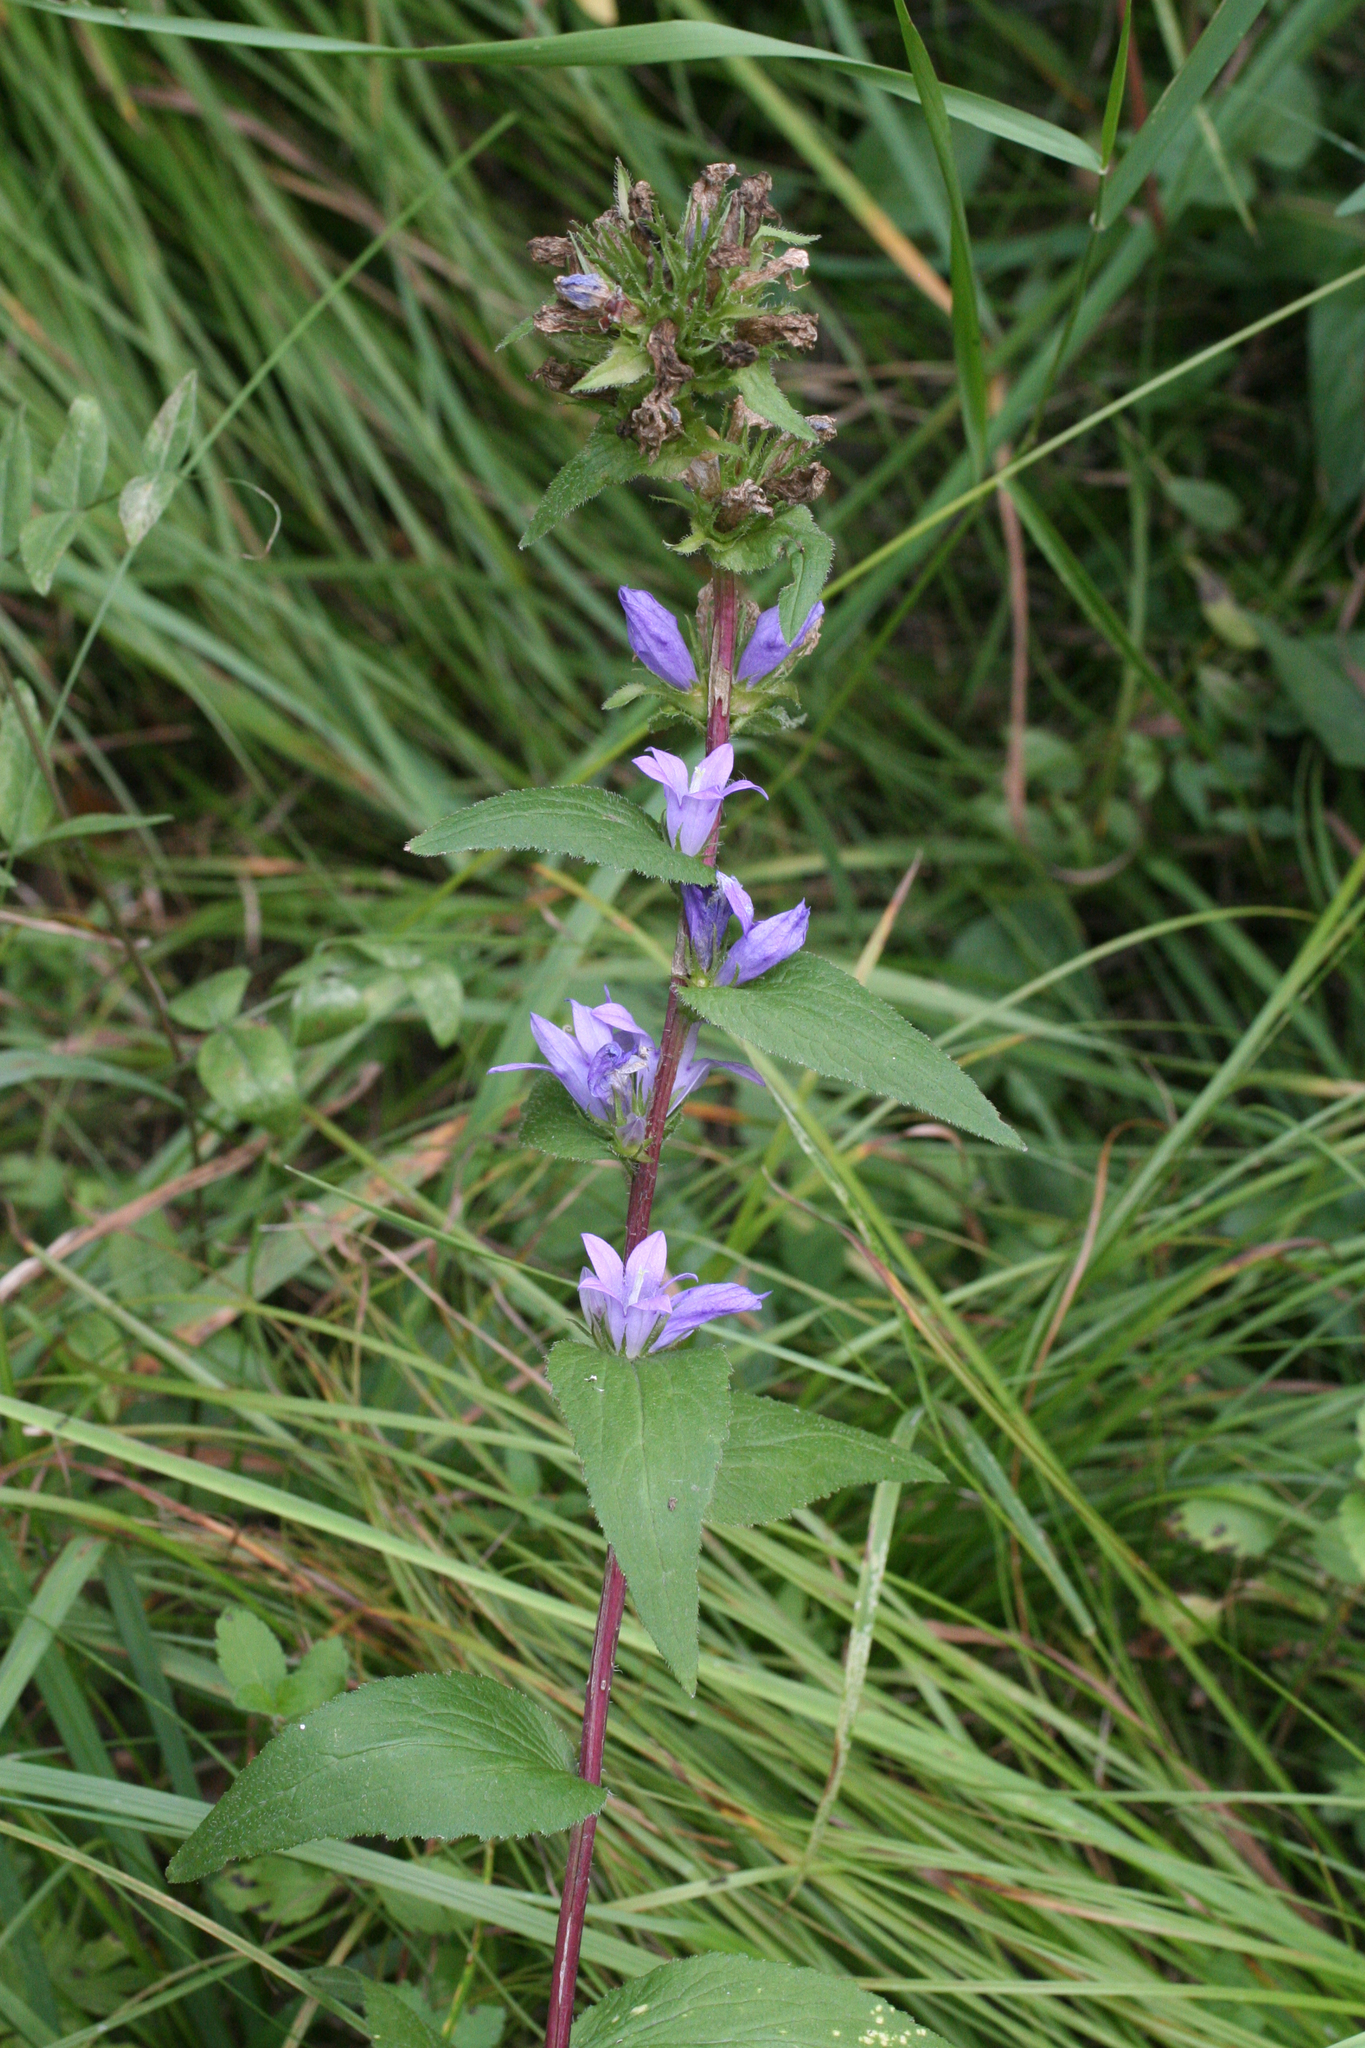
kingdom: Plantae
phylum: Tracheophyta
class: Magnoliopsida
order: Asterales
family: Campanulaceae
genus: Campanula
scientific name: Campanula glomerata
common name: Clustered bellflower
